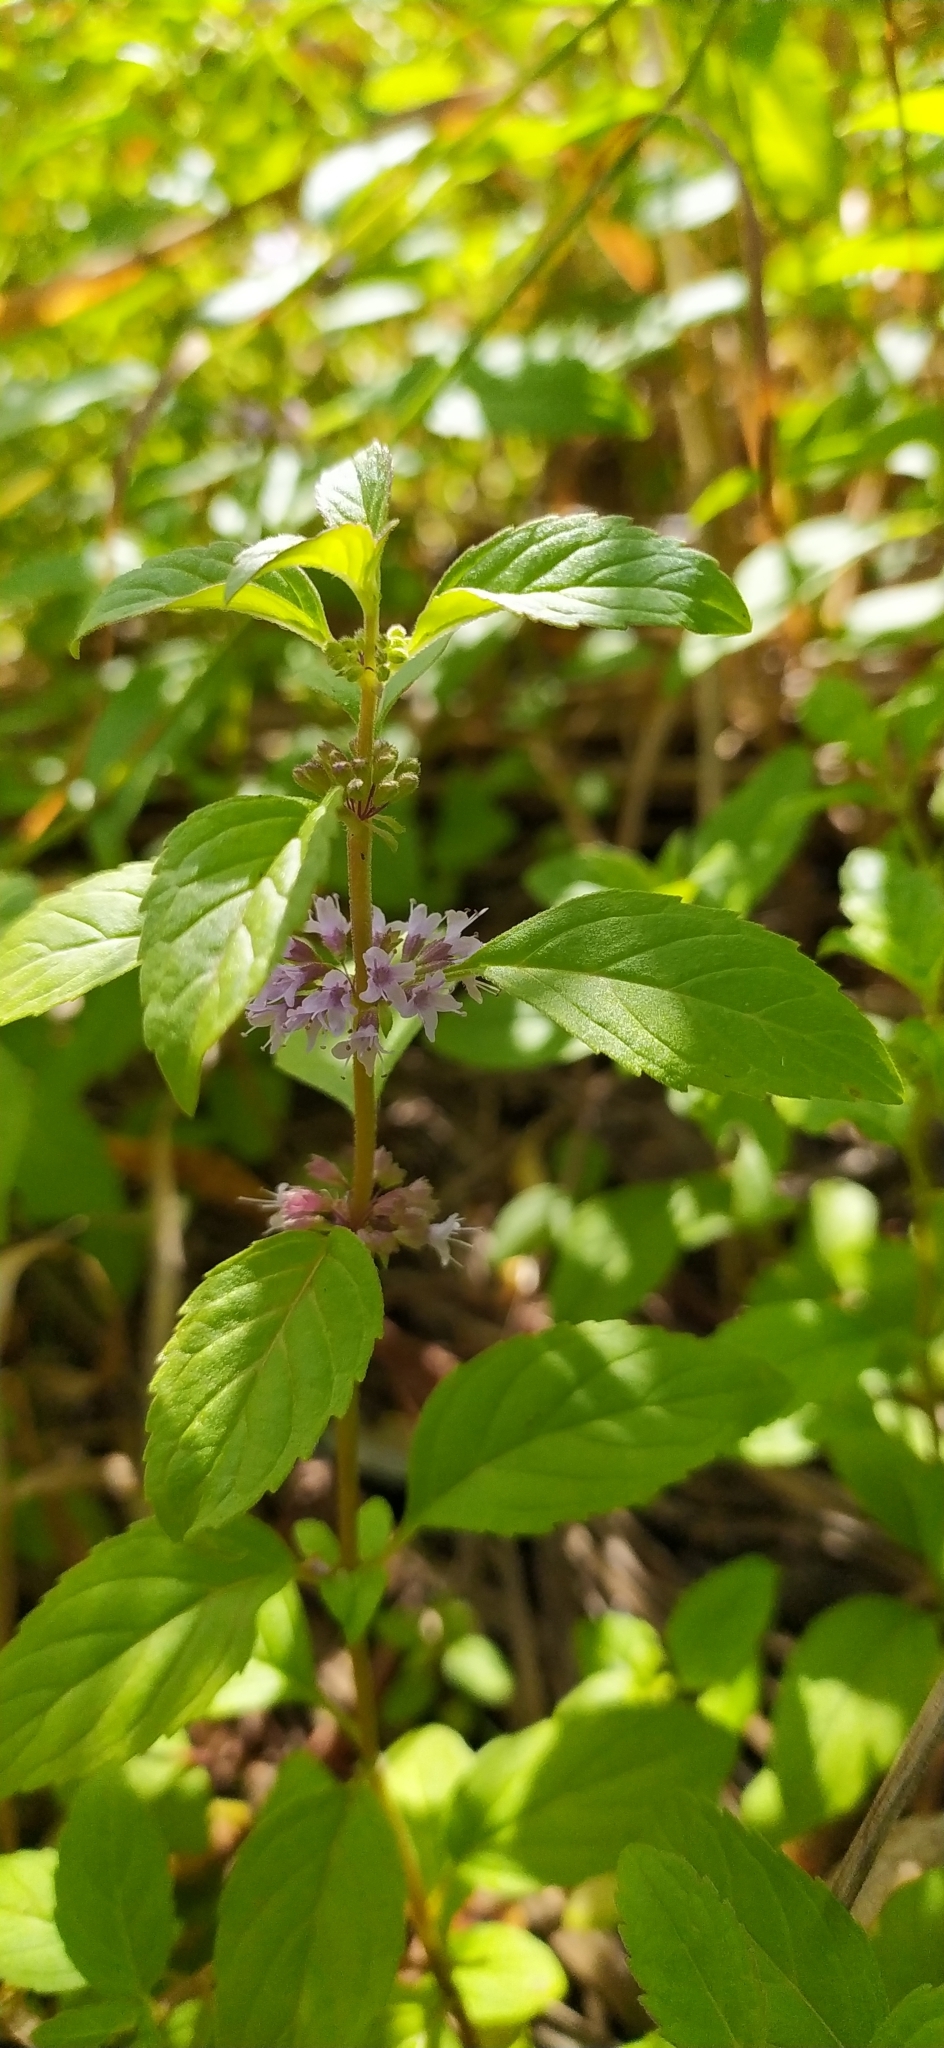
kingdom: Plantae
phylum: Tracheophyta
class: Magnoliopsida
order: Lamiales
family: Lamiaceae
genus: Mentha
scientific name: Mentha arvensis
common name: Corn mint
